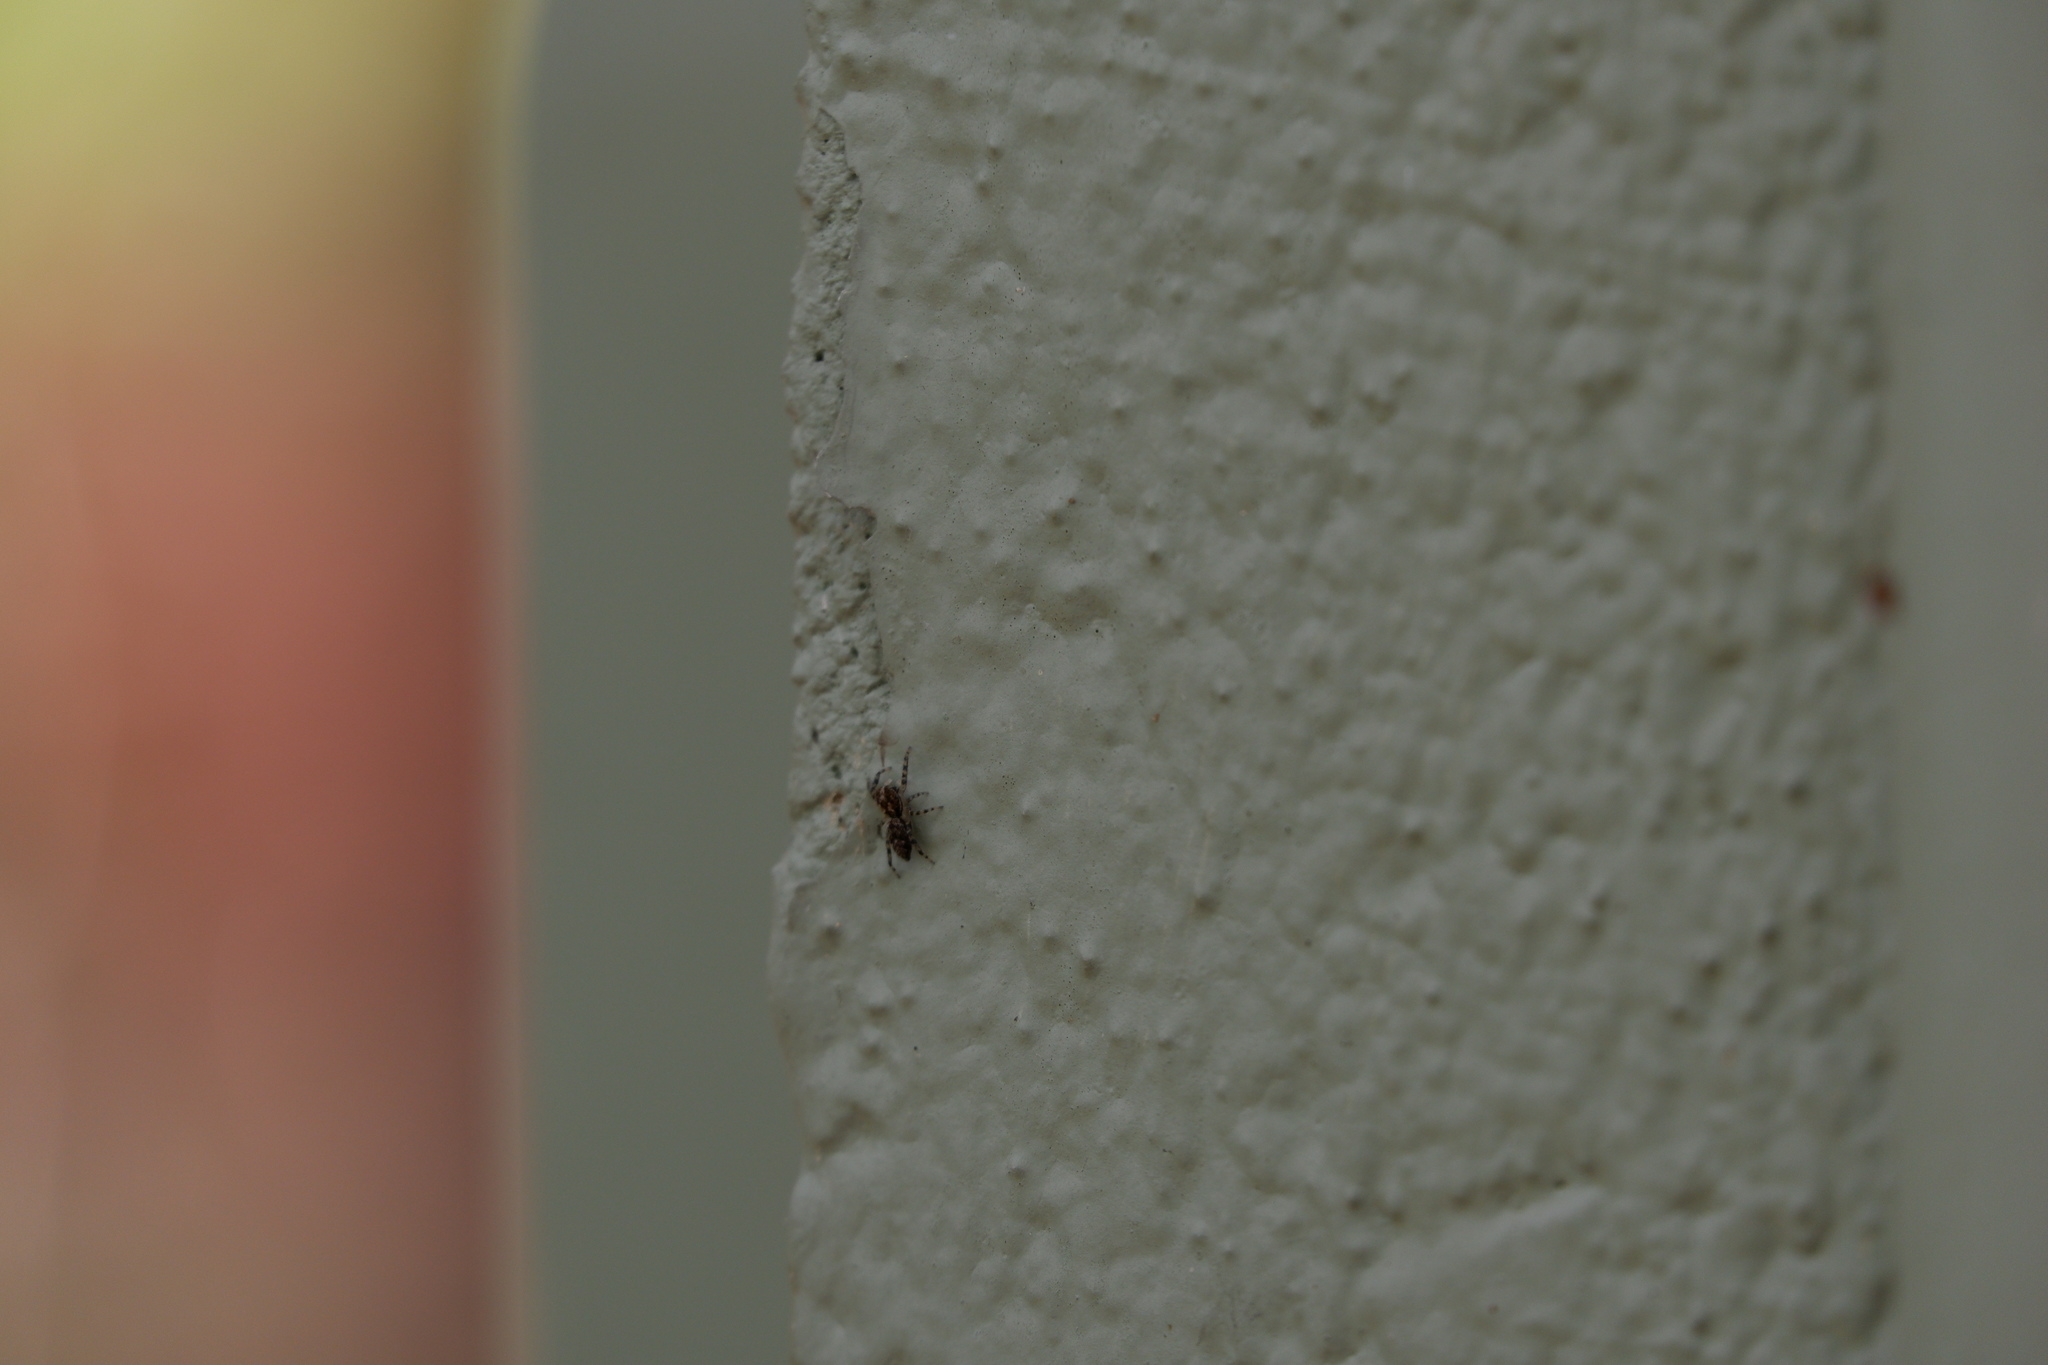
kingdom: Animalia
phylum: Arthropoda
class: Arachnida
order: Araneae
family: Salticidae
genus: Platycryptus
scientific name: Platycryptus undatus
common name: Tan jumping spider
